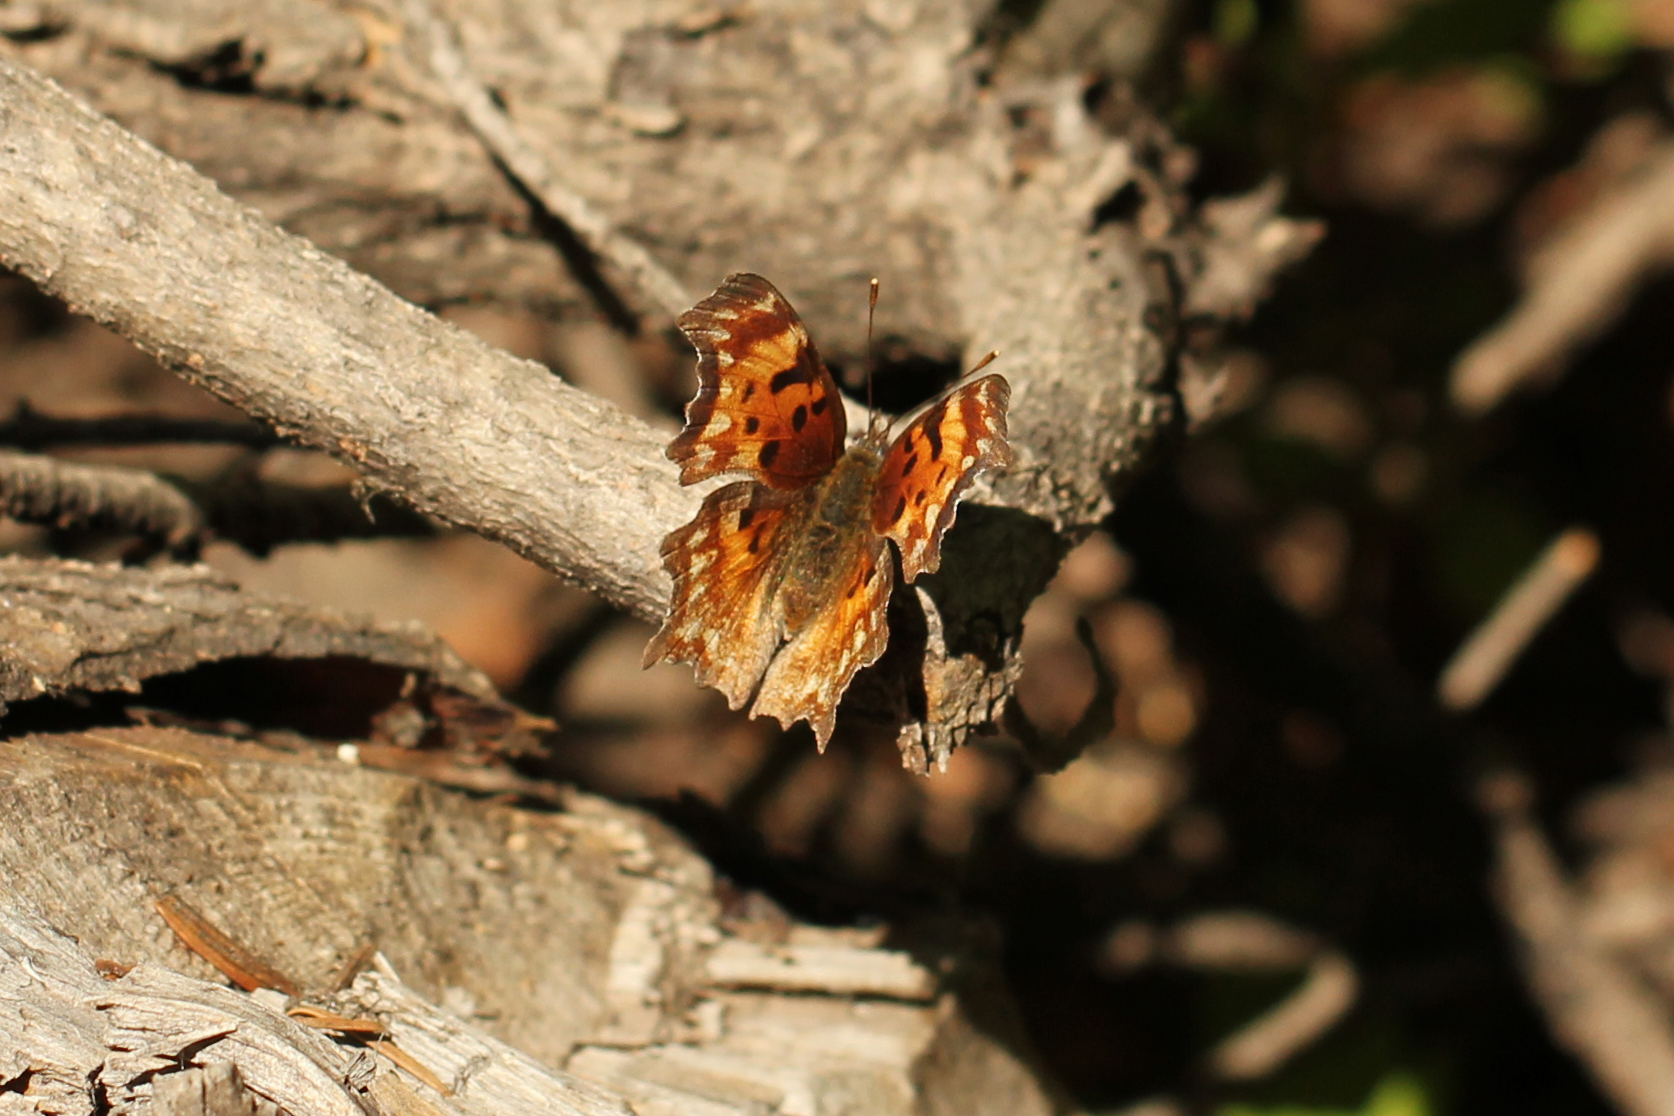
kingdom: Animalia
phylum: Arthropoda
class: Insecta
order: Lepidoptera
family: Nymphalidae
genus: Polygonia
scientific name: Polygonia gracilis
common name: Hoary comma
